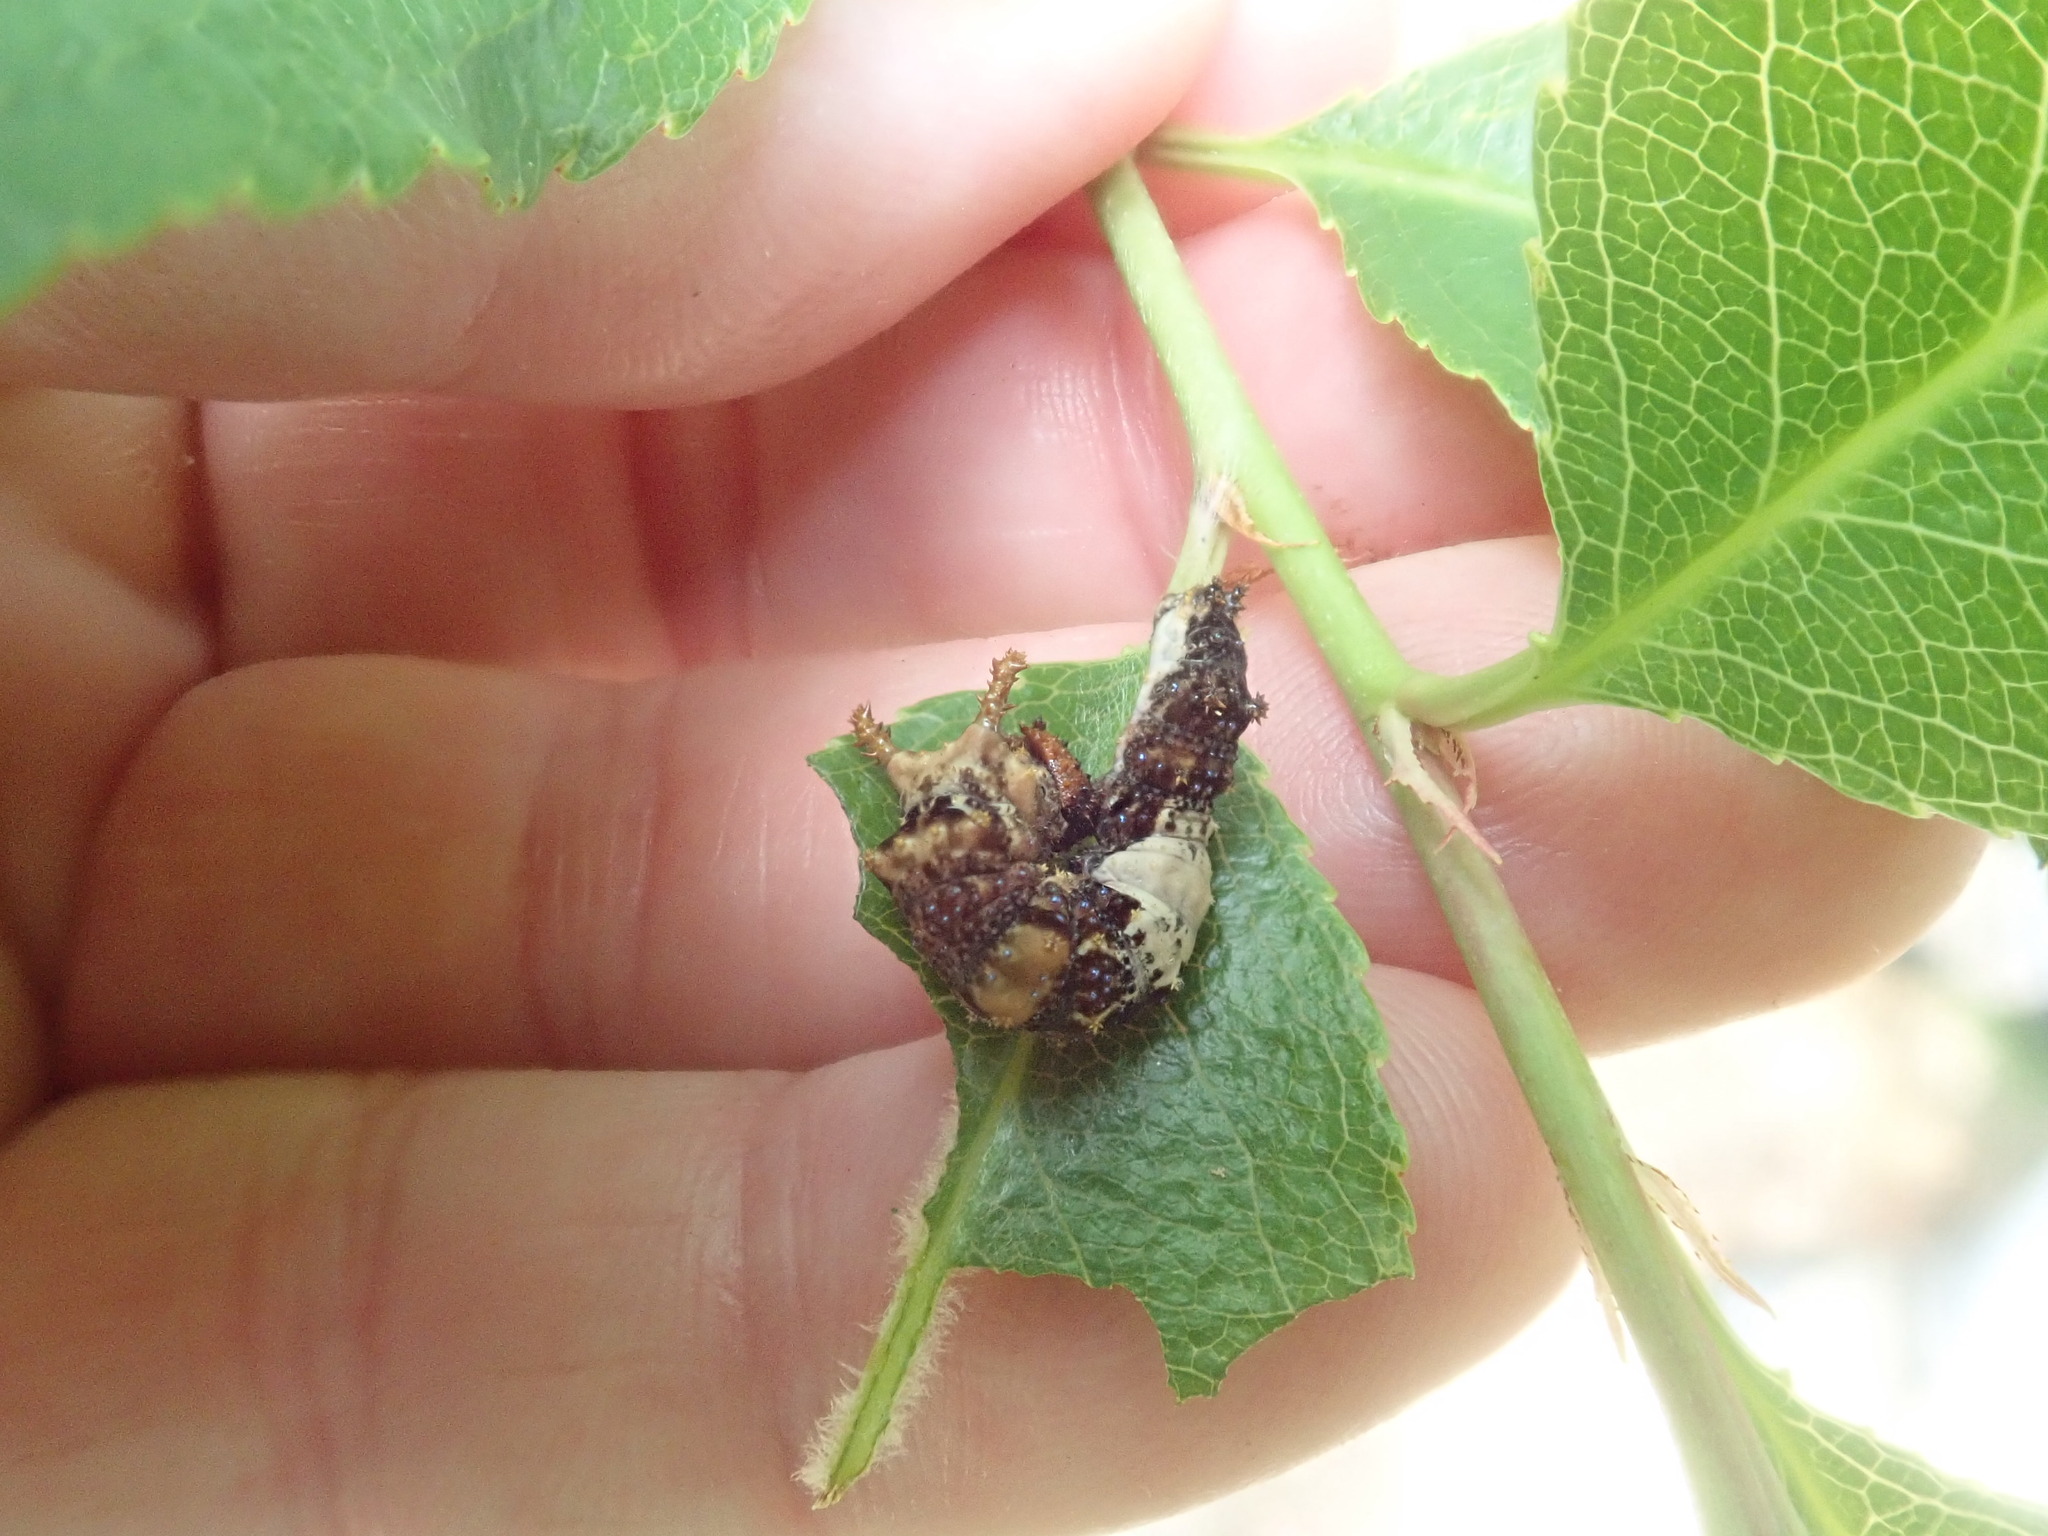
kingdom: Animalia
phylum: Arthropoda
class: Insecta
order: Lepidoptera
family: Nymphalidae
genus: Limenitis
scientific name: Limenitis archippus
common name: Viceroy
